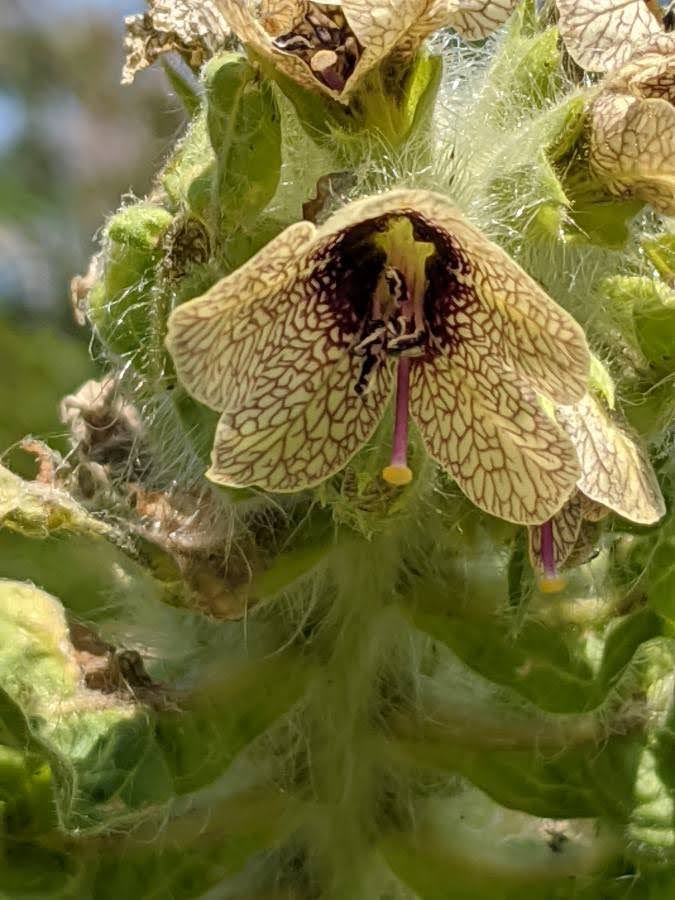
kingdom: Plantae
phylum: Tracheophyta
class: Magnoliopsida
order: Solanales
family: Solanaceae
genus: Hyoscyamus
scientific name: Hyoscyamus niger
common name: Henbane
